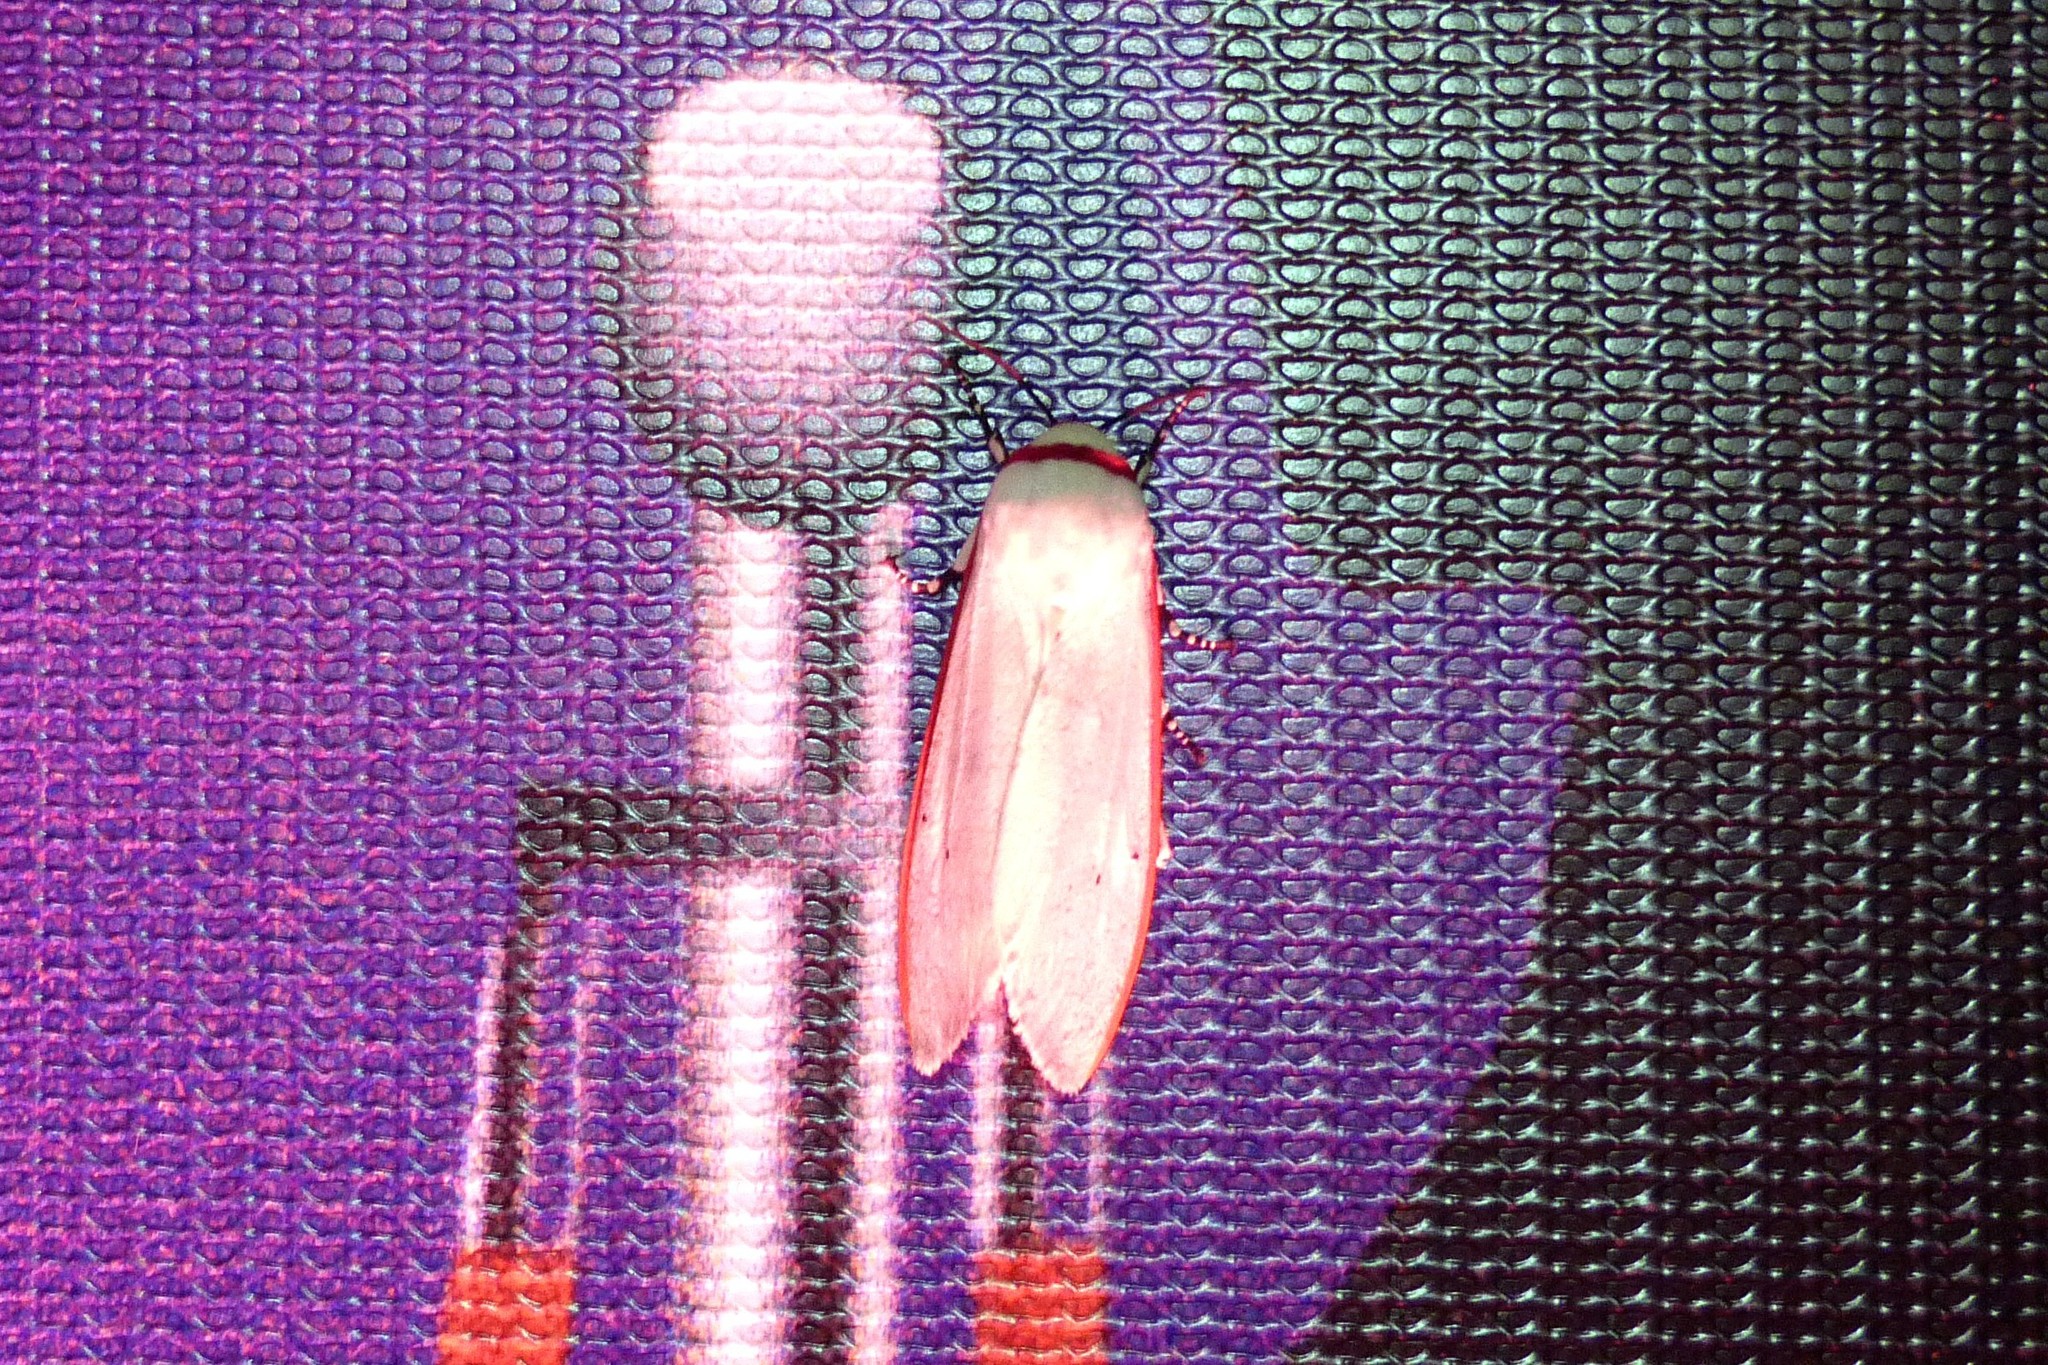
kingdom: Animalia
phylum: Arthropoda
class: Insecta
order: Lepidoptera
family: Erebidae
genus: Aloa
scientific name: Aloa lactinea
